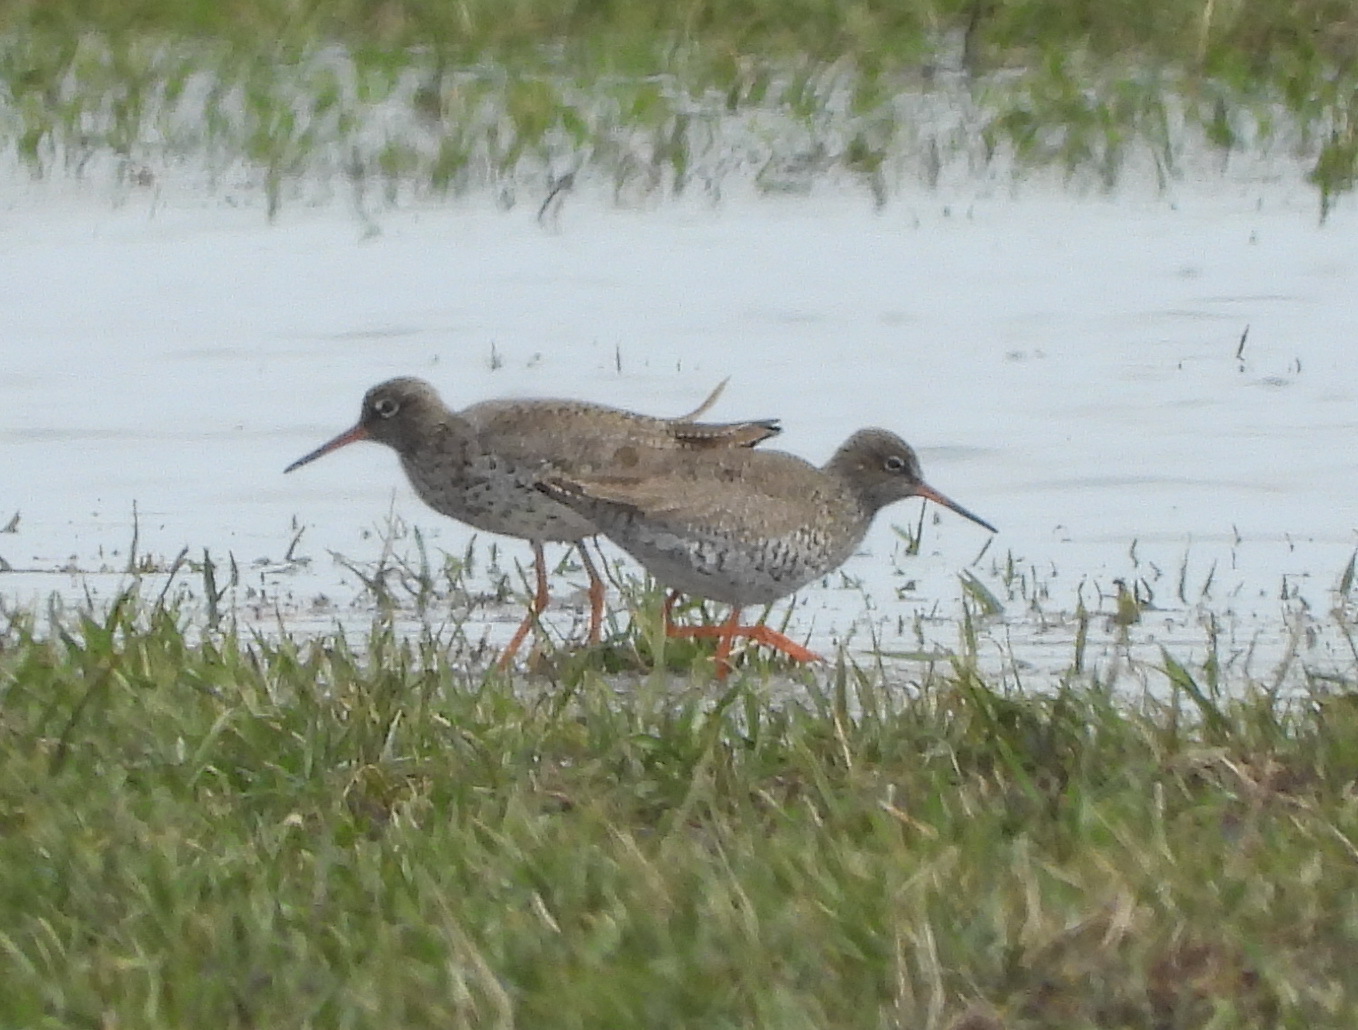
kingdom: Animalia
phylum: Chordata
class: Aves
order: Charadriiformes
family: Scolopacidae
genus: Tringa
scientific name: Tringa totanus
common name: Common redshank
